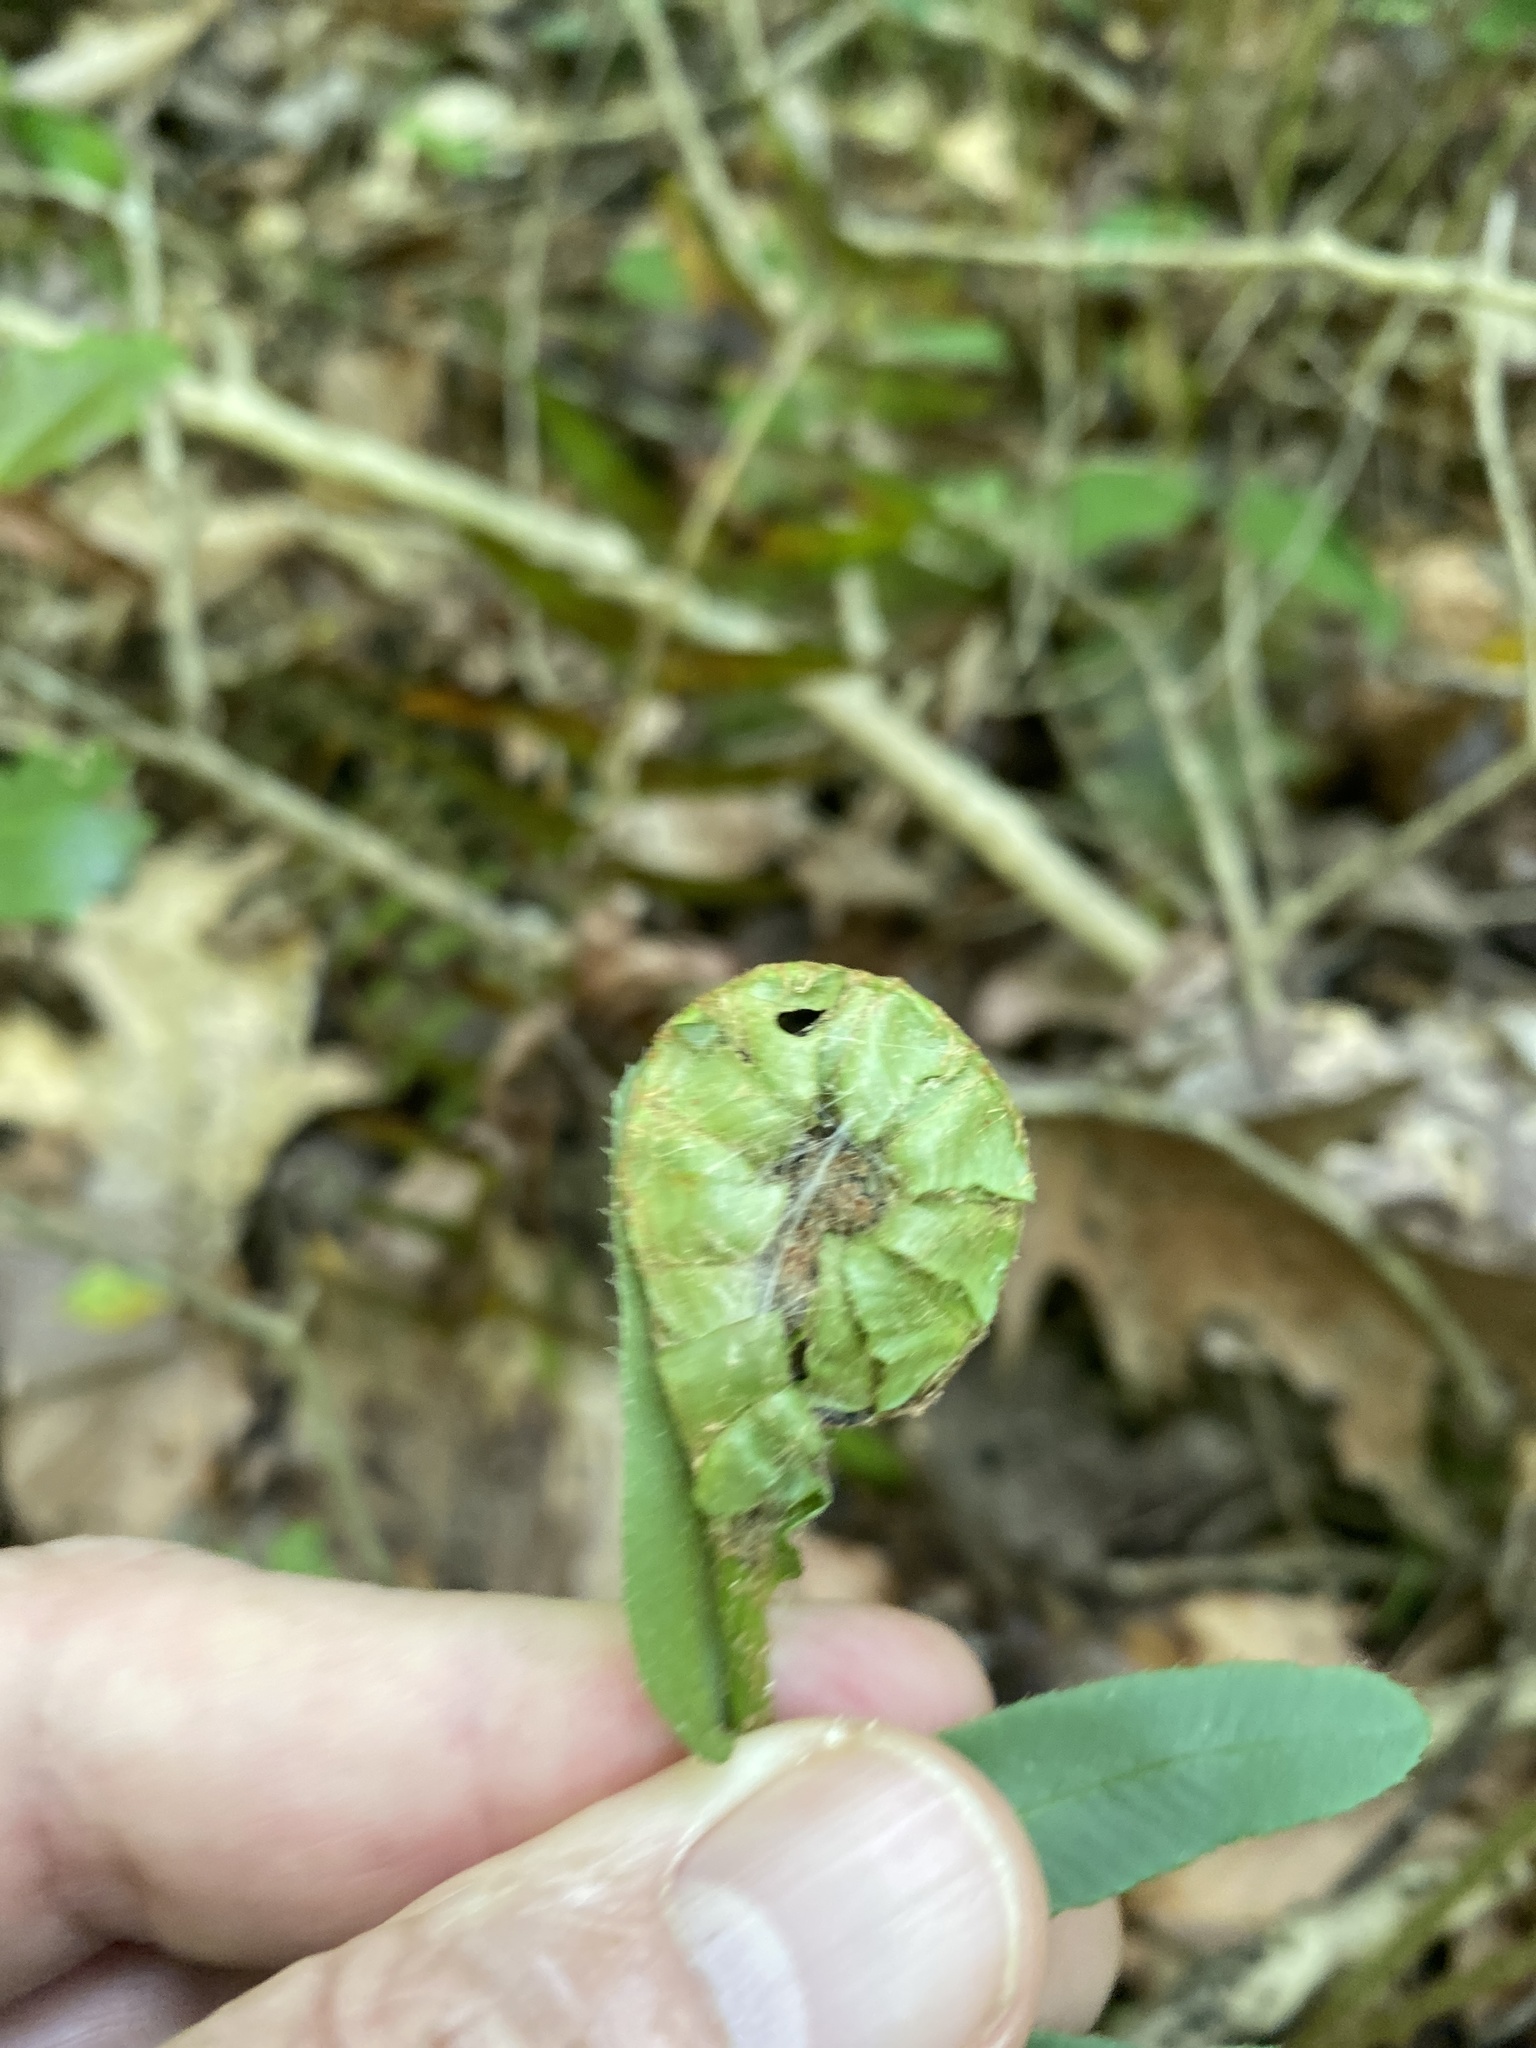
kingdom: Animalia
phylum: Arthropoda
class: Insecta
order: Lepidoptera
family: Crambidae
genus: Herpetogramma
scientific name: Herpetogramma sphingealis
